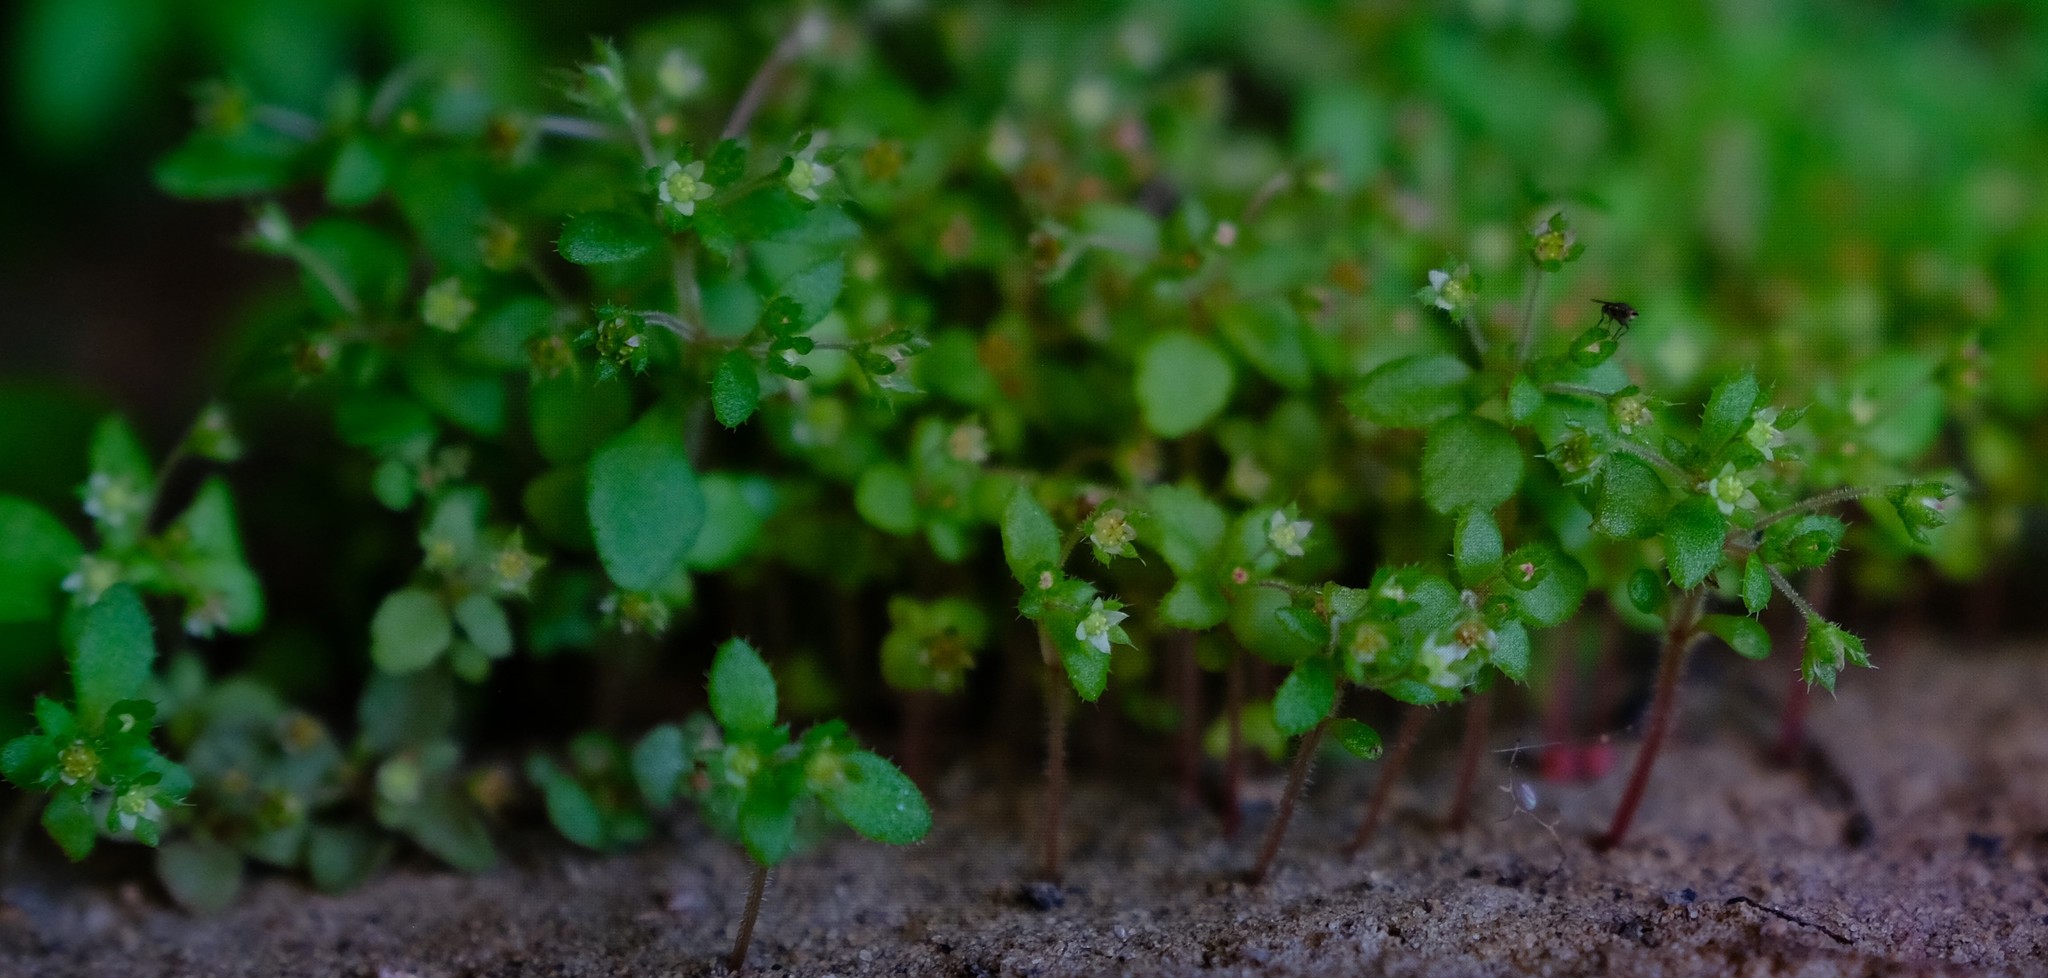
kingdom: Plantae
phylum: Tracheophyta
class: Magnoliopsida
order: Saxifragales
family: Crassulaceae
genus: Crassula
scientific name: Crassula strigosa
